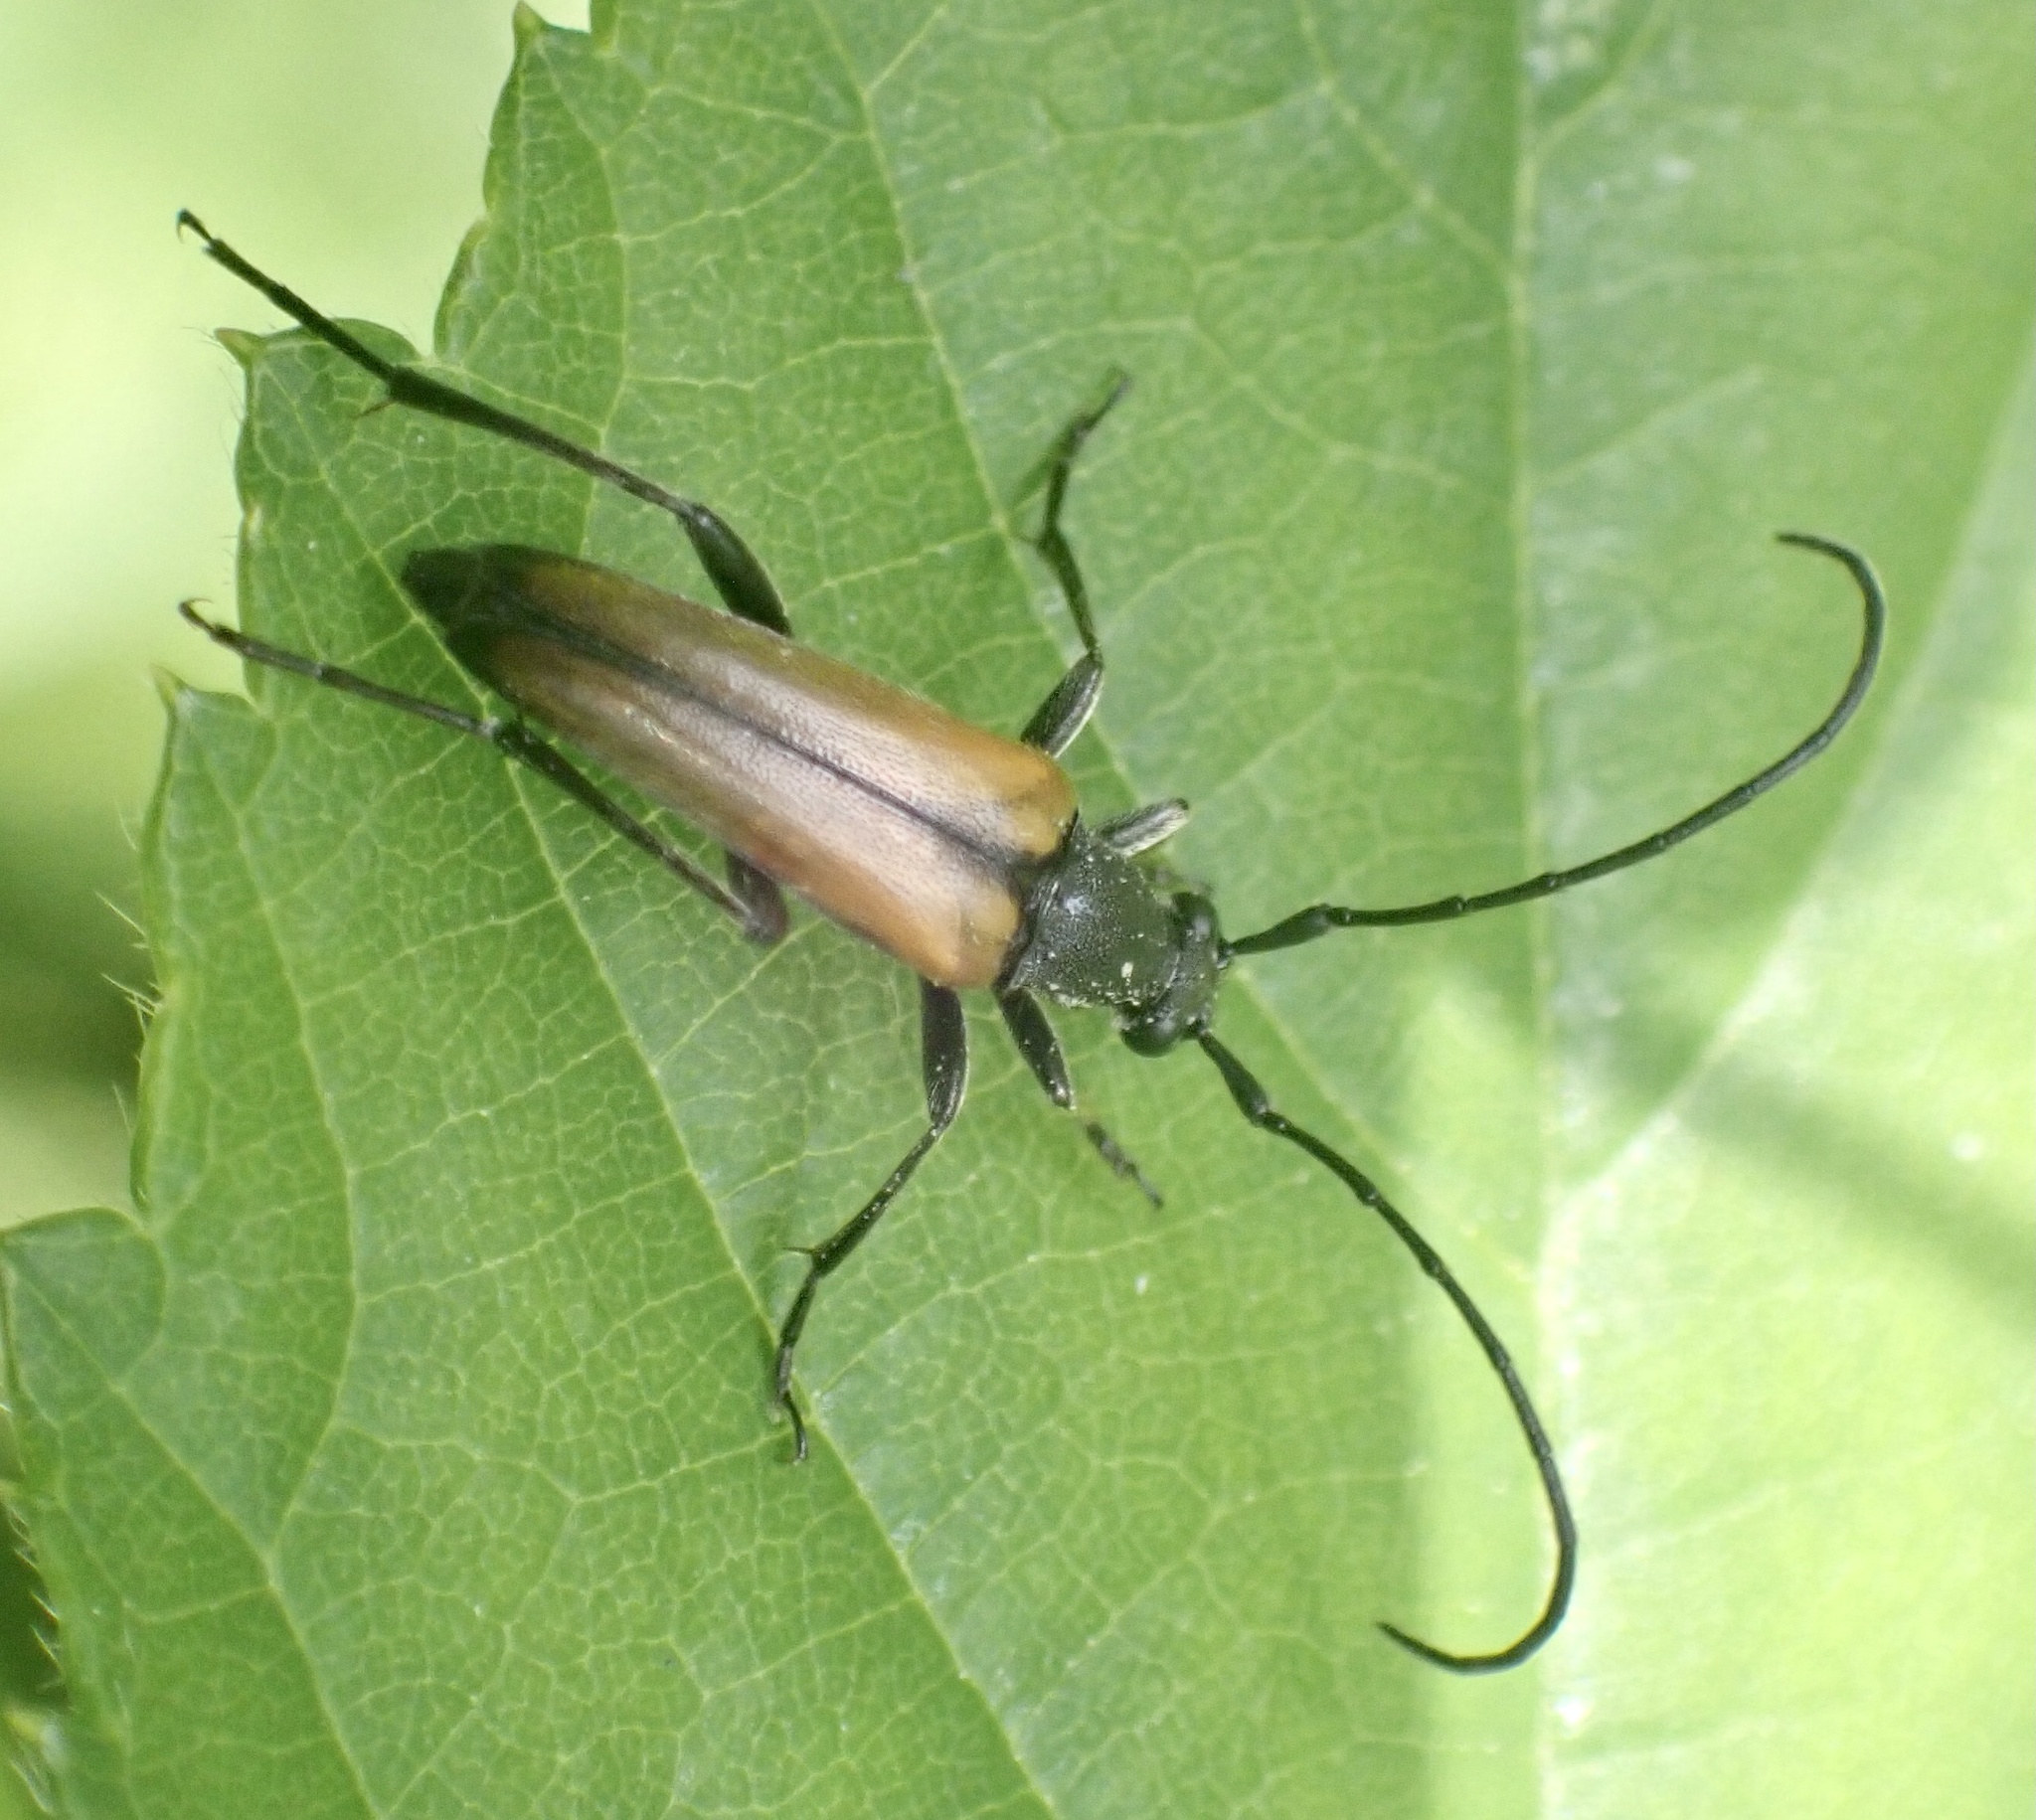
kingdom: Animalia
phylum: Arthropoda
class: Insecta
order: Coleoptera
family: Cerambycidae
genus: Stenurella
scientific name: Stenurella melanura
